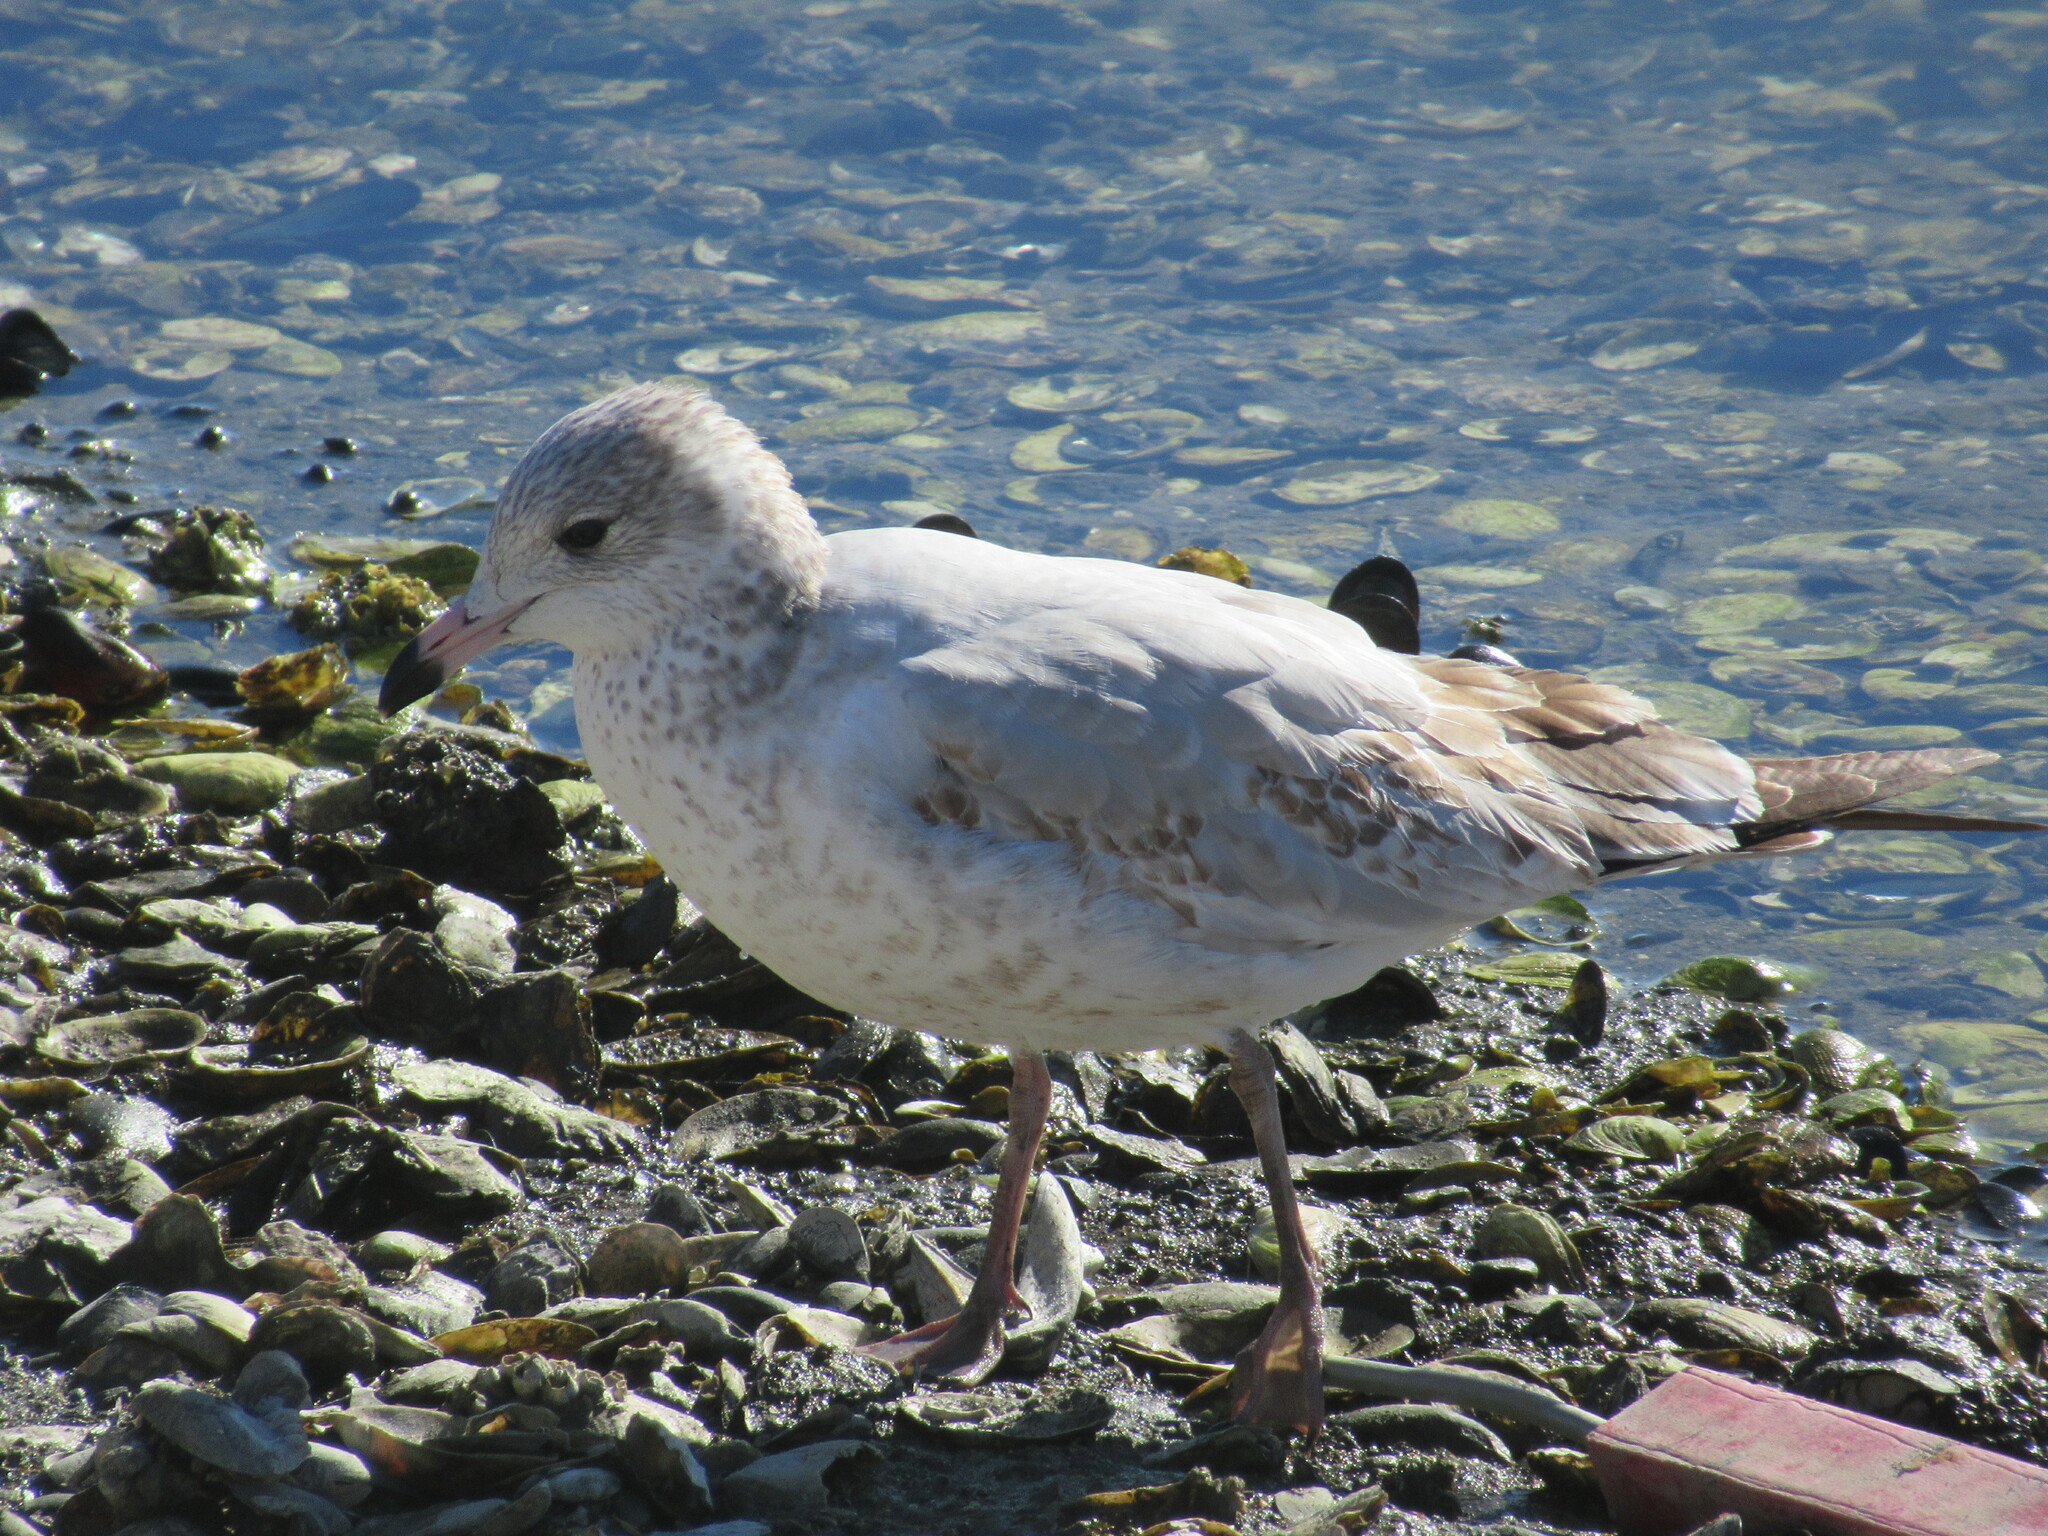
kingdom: Animalia
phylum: Chordata
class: Aves
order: Charadriiformes
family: Laridae
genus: Larus
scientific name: Larus delawarensis
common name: Ring-billed gull
